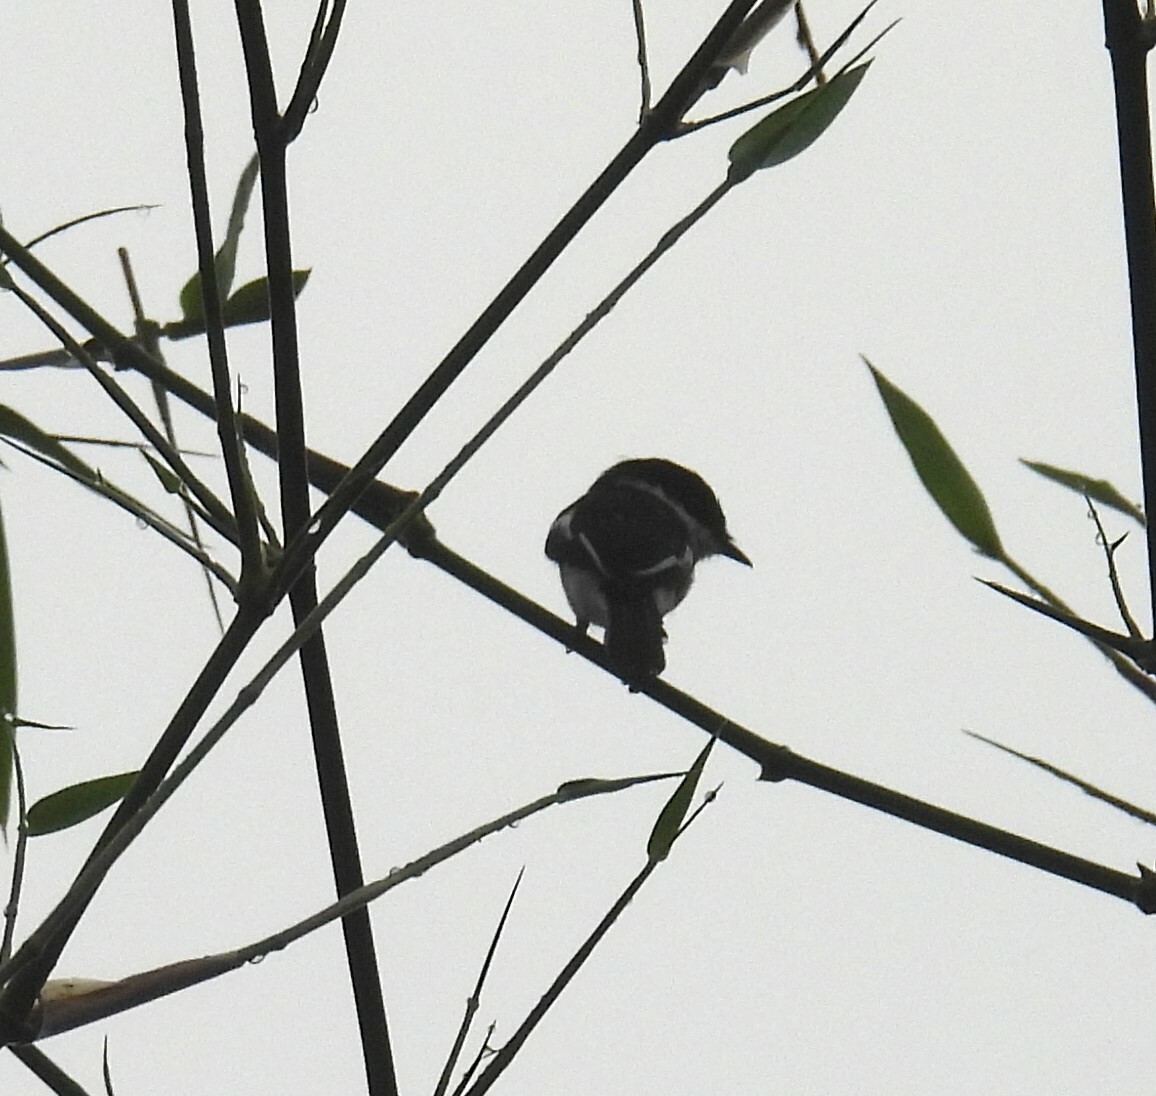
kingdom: Animalia
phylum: Chordata
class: Aves
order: Passeriformes
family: Tephrodornithidae
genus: Hemipus
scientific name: Hemipus picatus
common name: Bar-winged flycatcher-shrike
